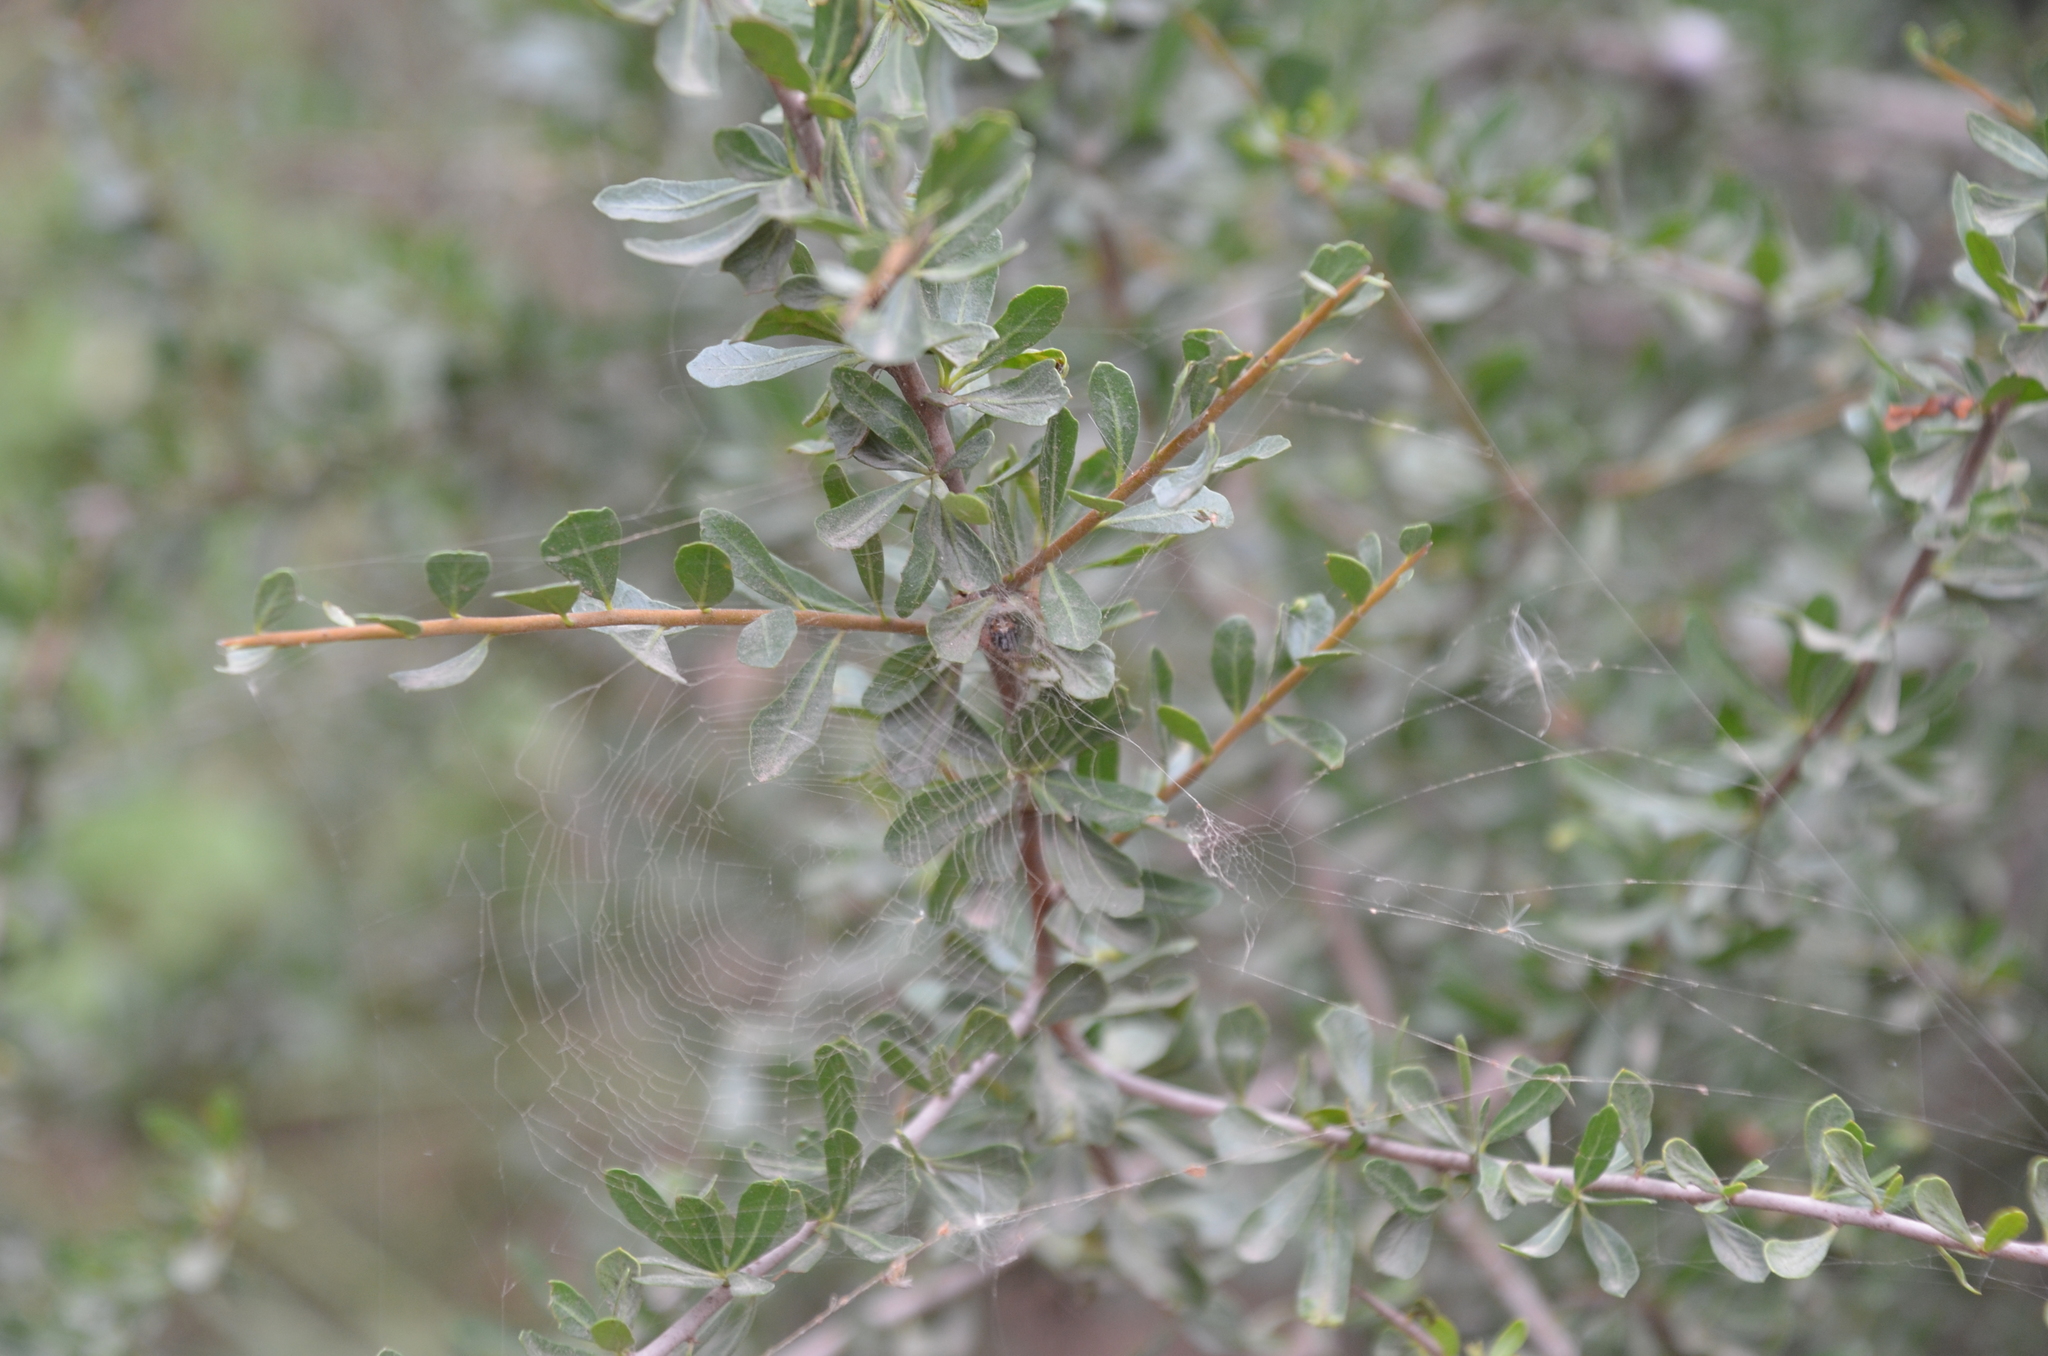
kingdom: Animalia
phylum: Arthropoda
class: Arachnida
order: Araneae
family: Araneidae
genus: Metepeira
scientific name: Metepeira
